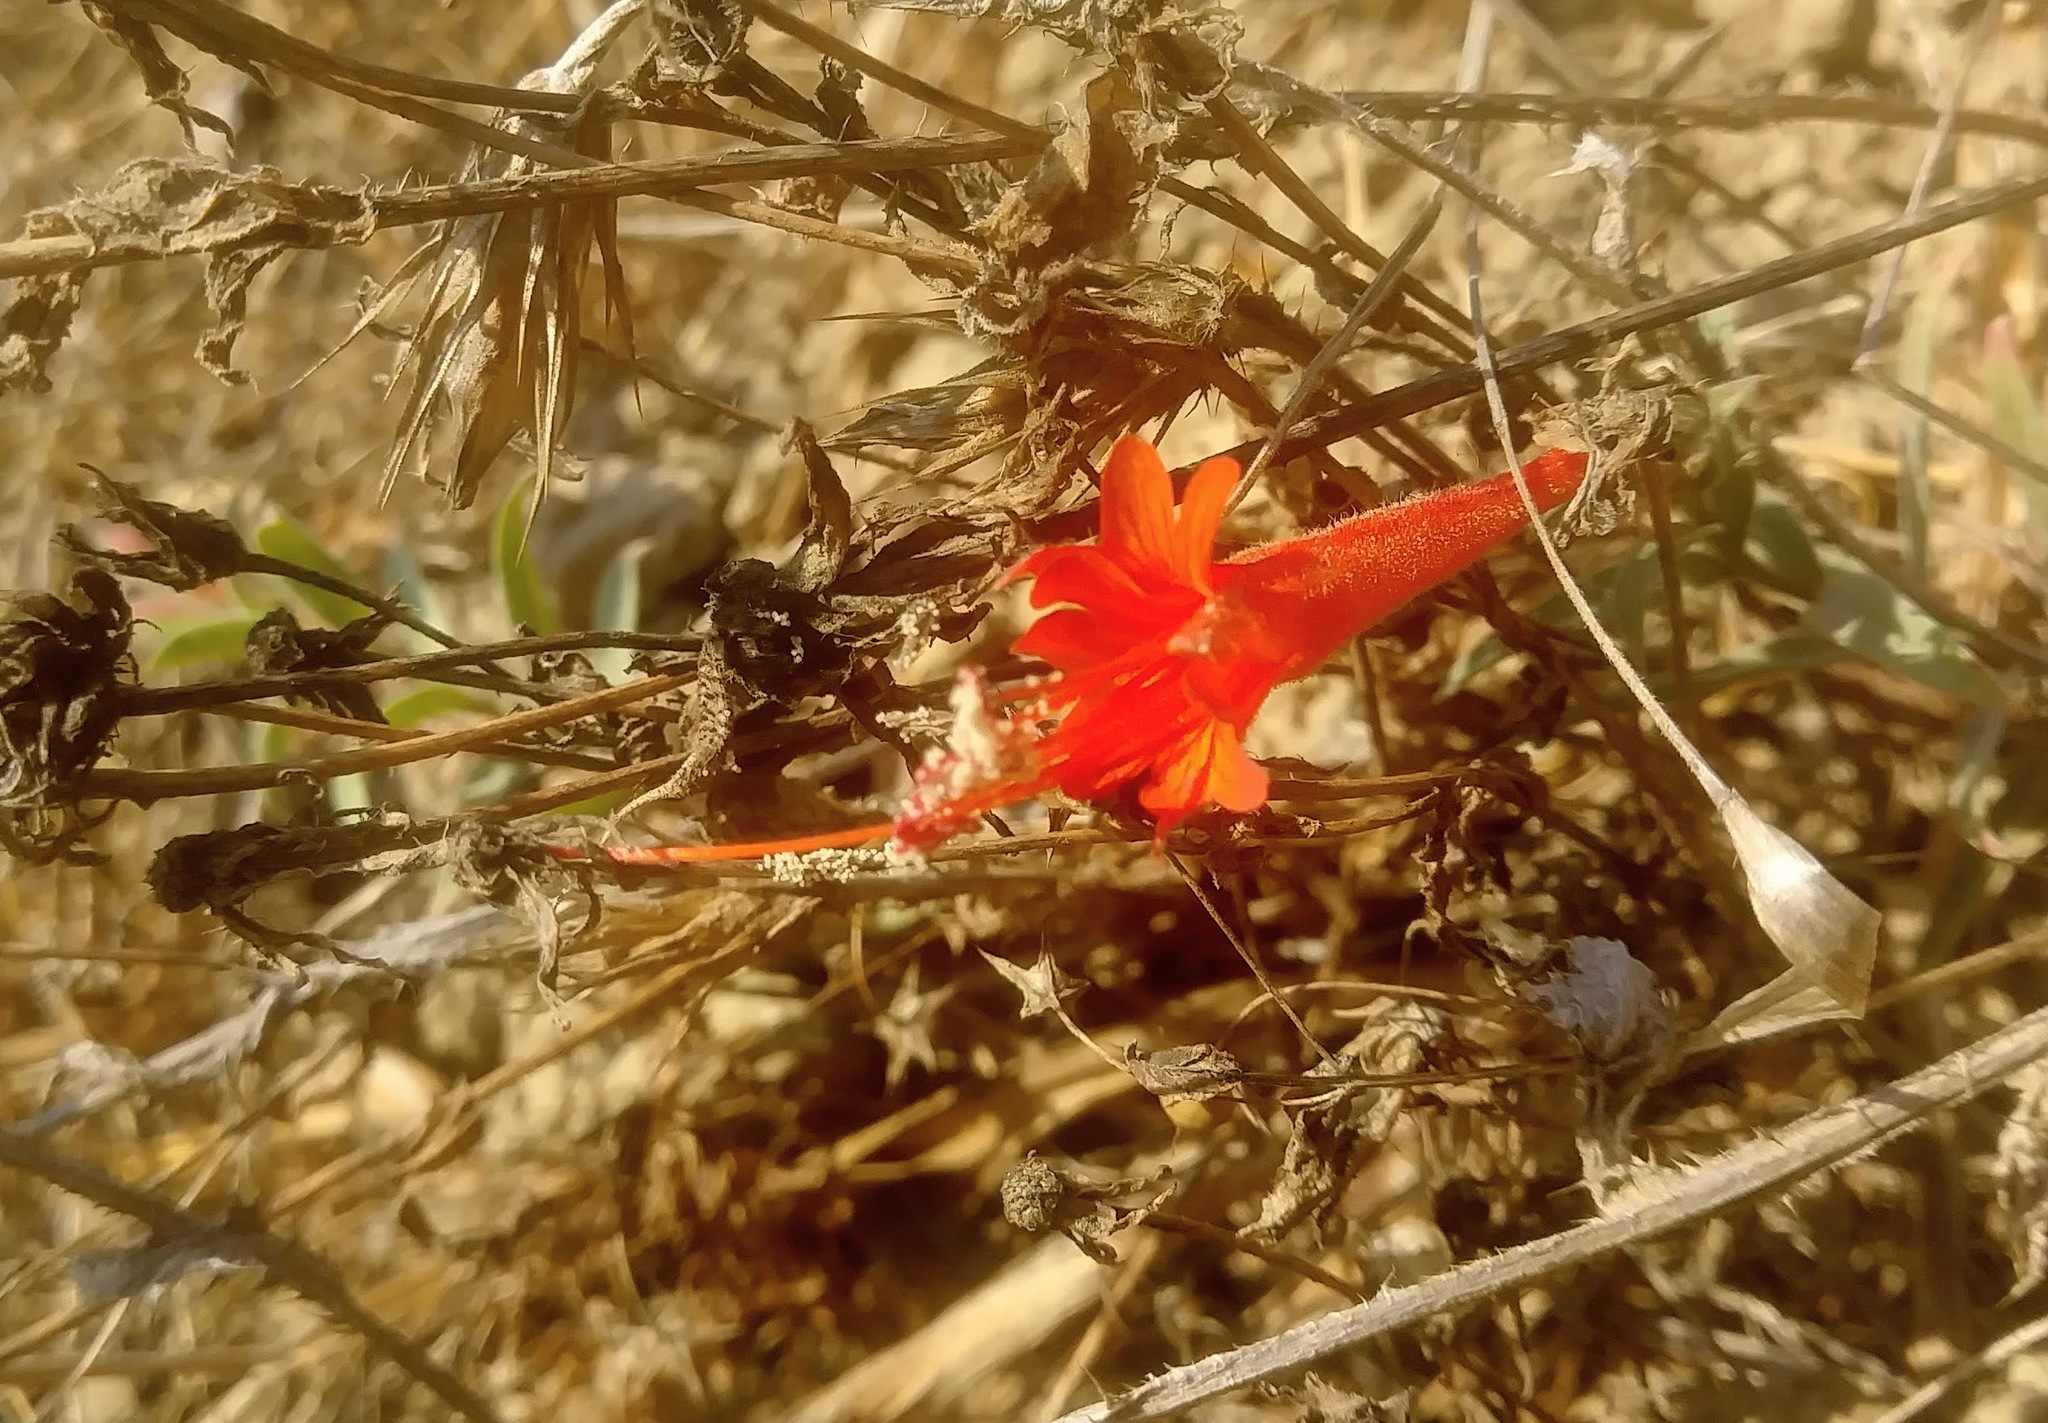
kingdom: Plantae
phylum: Tracheophyta
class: Magnoliopsida
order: Myrtales
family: Onagraceae
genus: Epilobium
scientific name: Epilobium canum
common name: California-fuchsia
